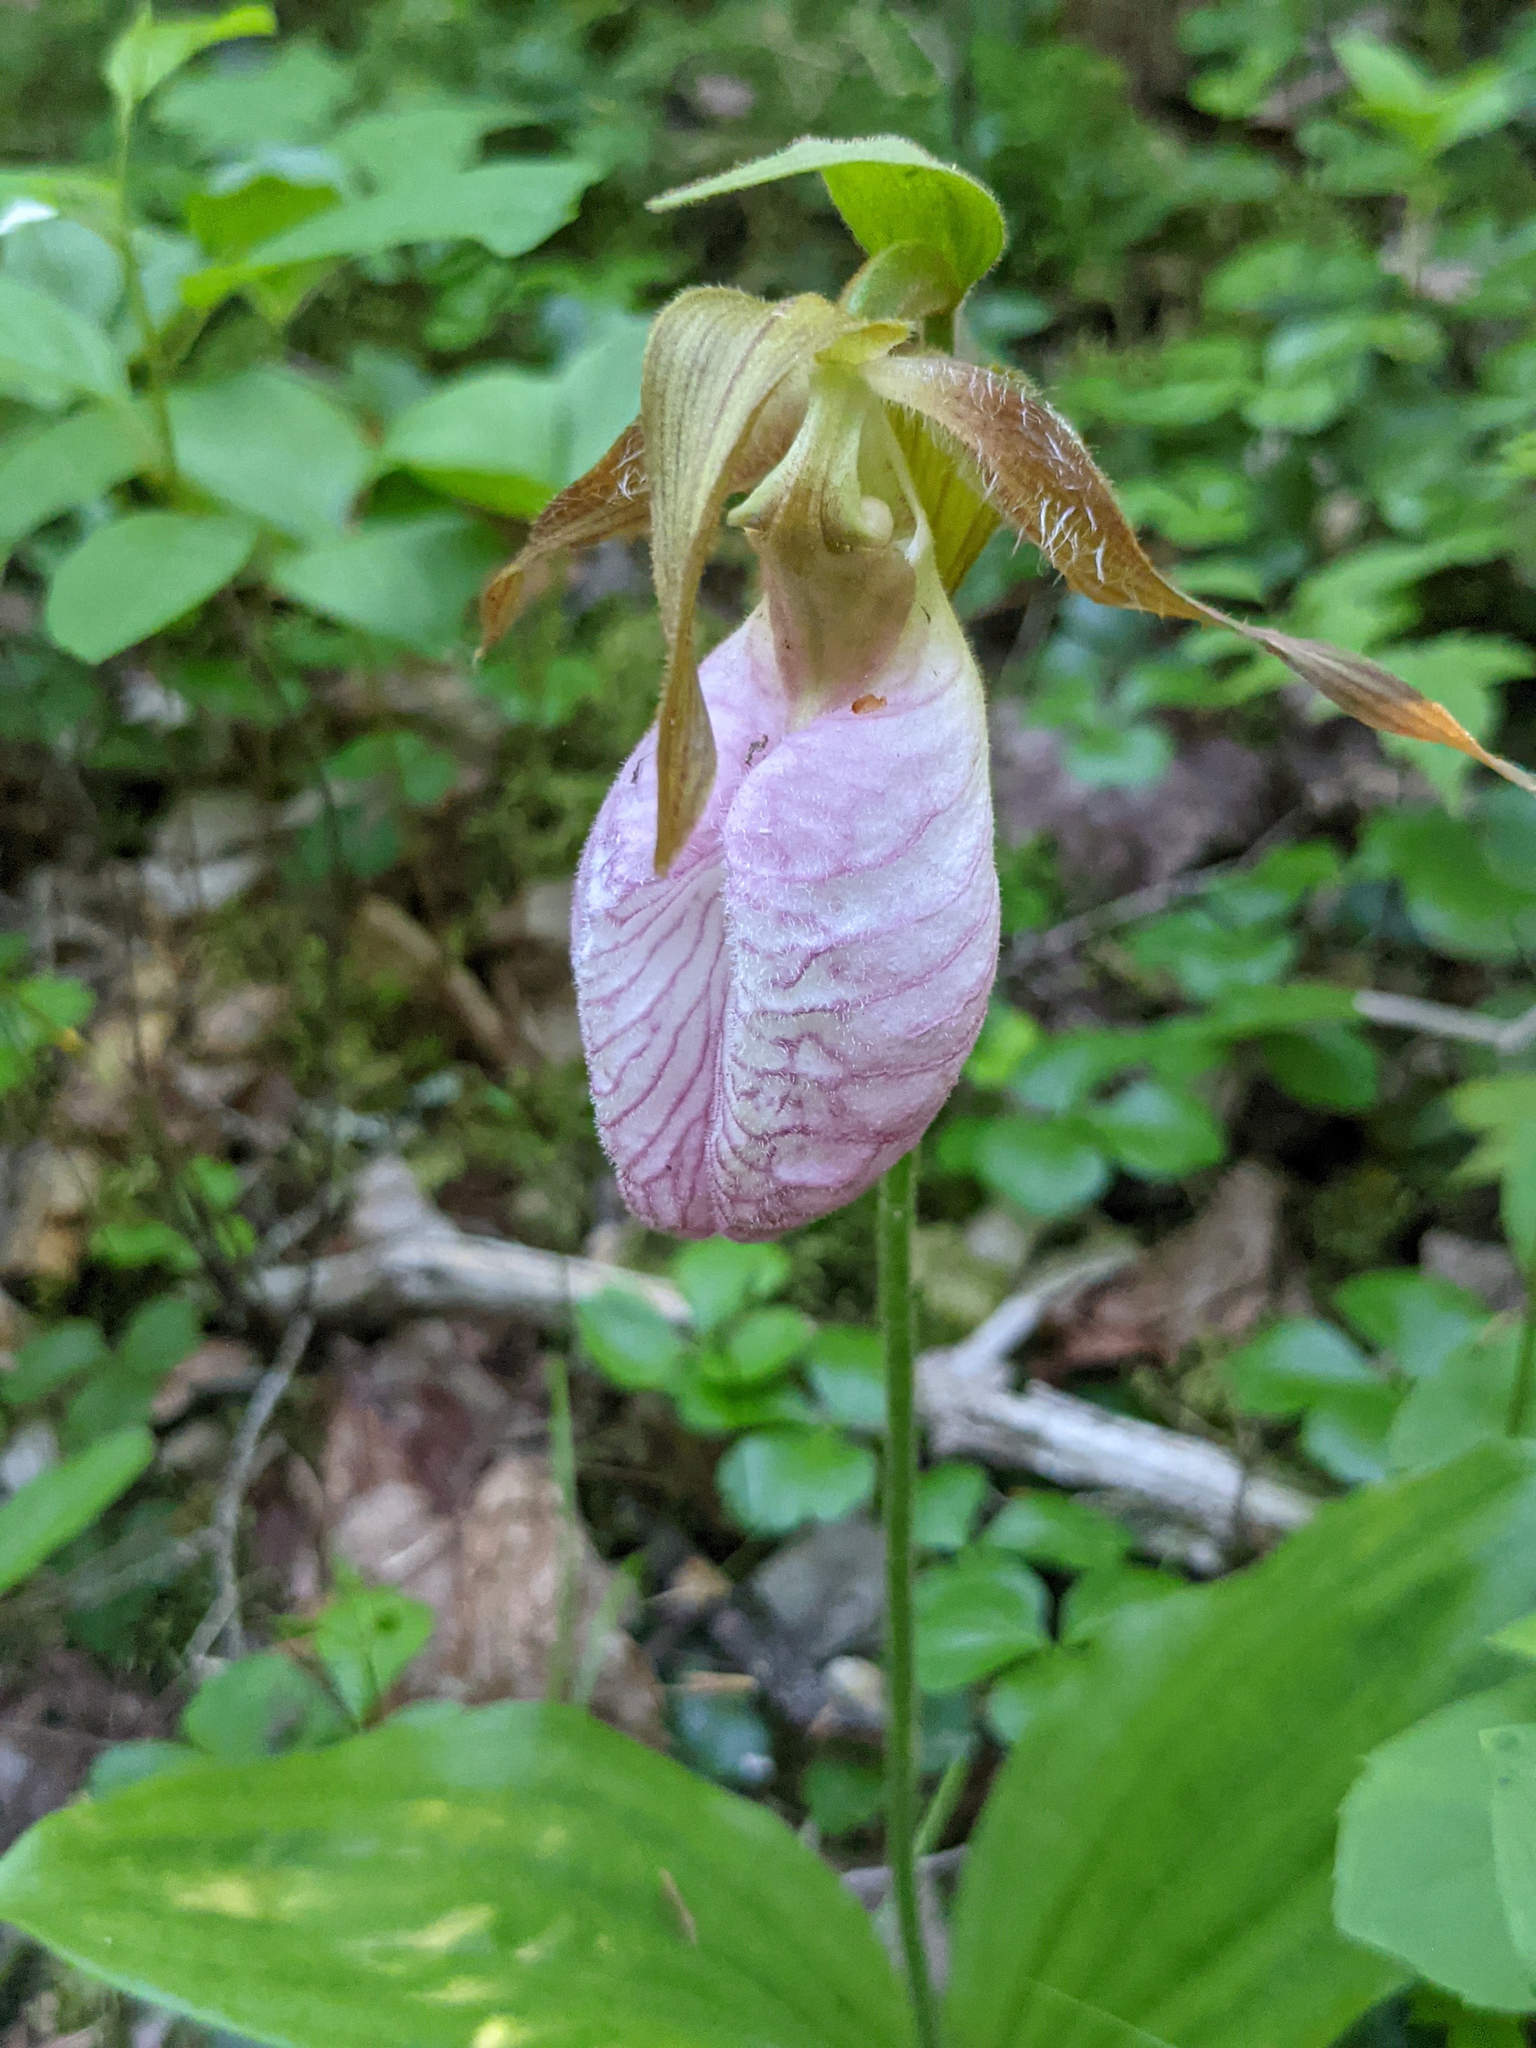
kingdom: Plantae
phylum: Tracheophyta
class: Liliopsida
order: Asparagales
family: Orchidaceae
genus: Cypripedium
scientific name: Cypripedium acaule
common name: Pink lady's-slipper
